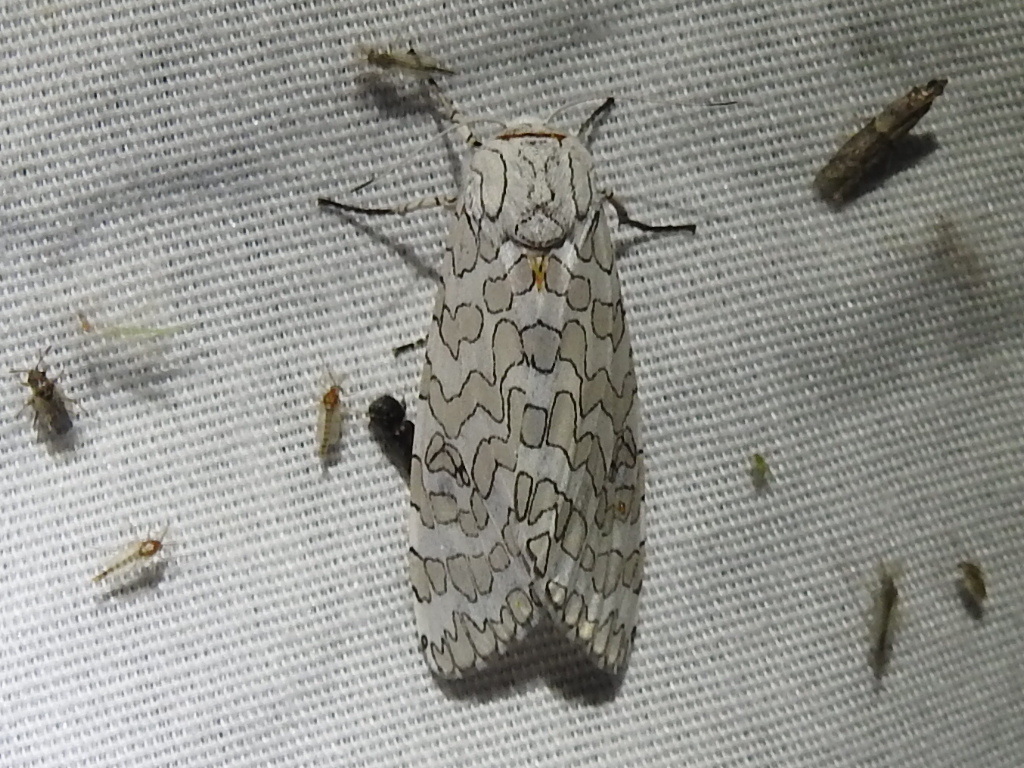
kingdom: Animalia
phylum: Arthropoda
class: Insecta
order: Lepidoptera
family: Erebidae
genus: Hypercompe
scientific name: Hypercompe oslari
